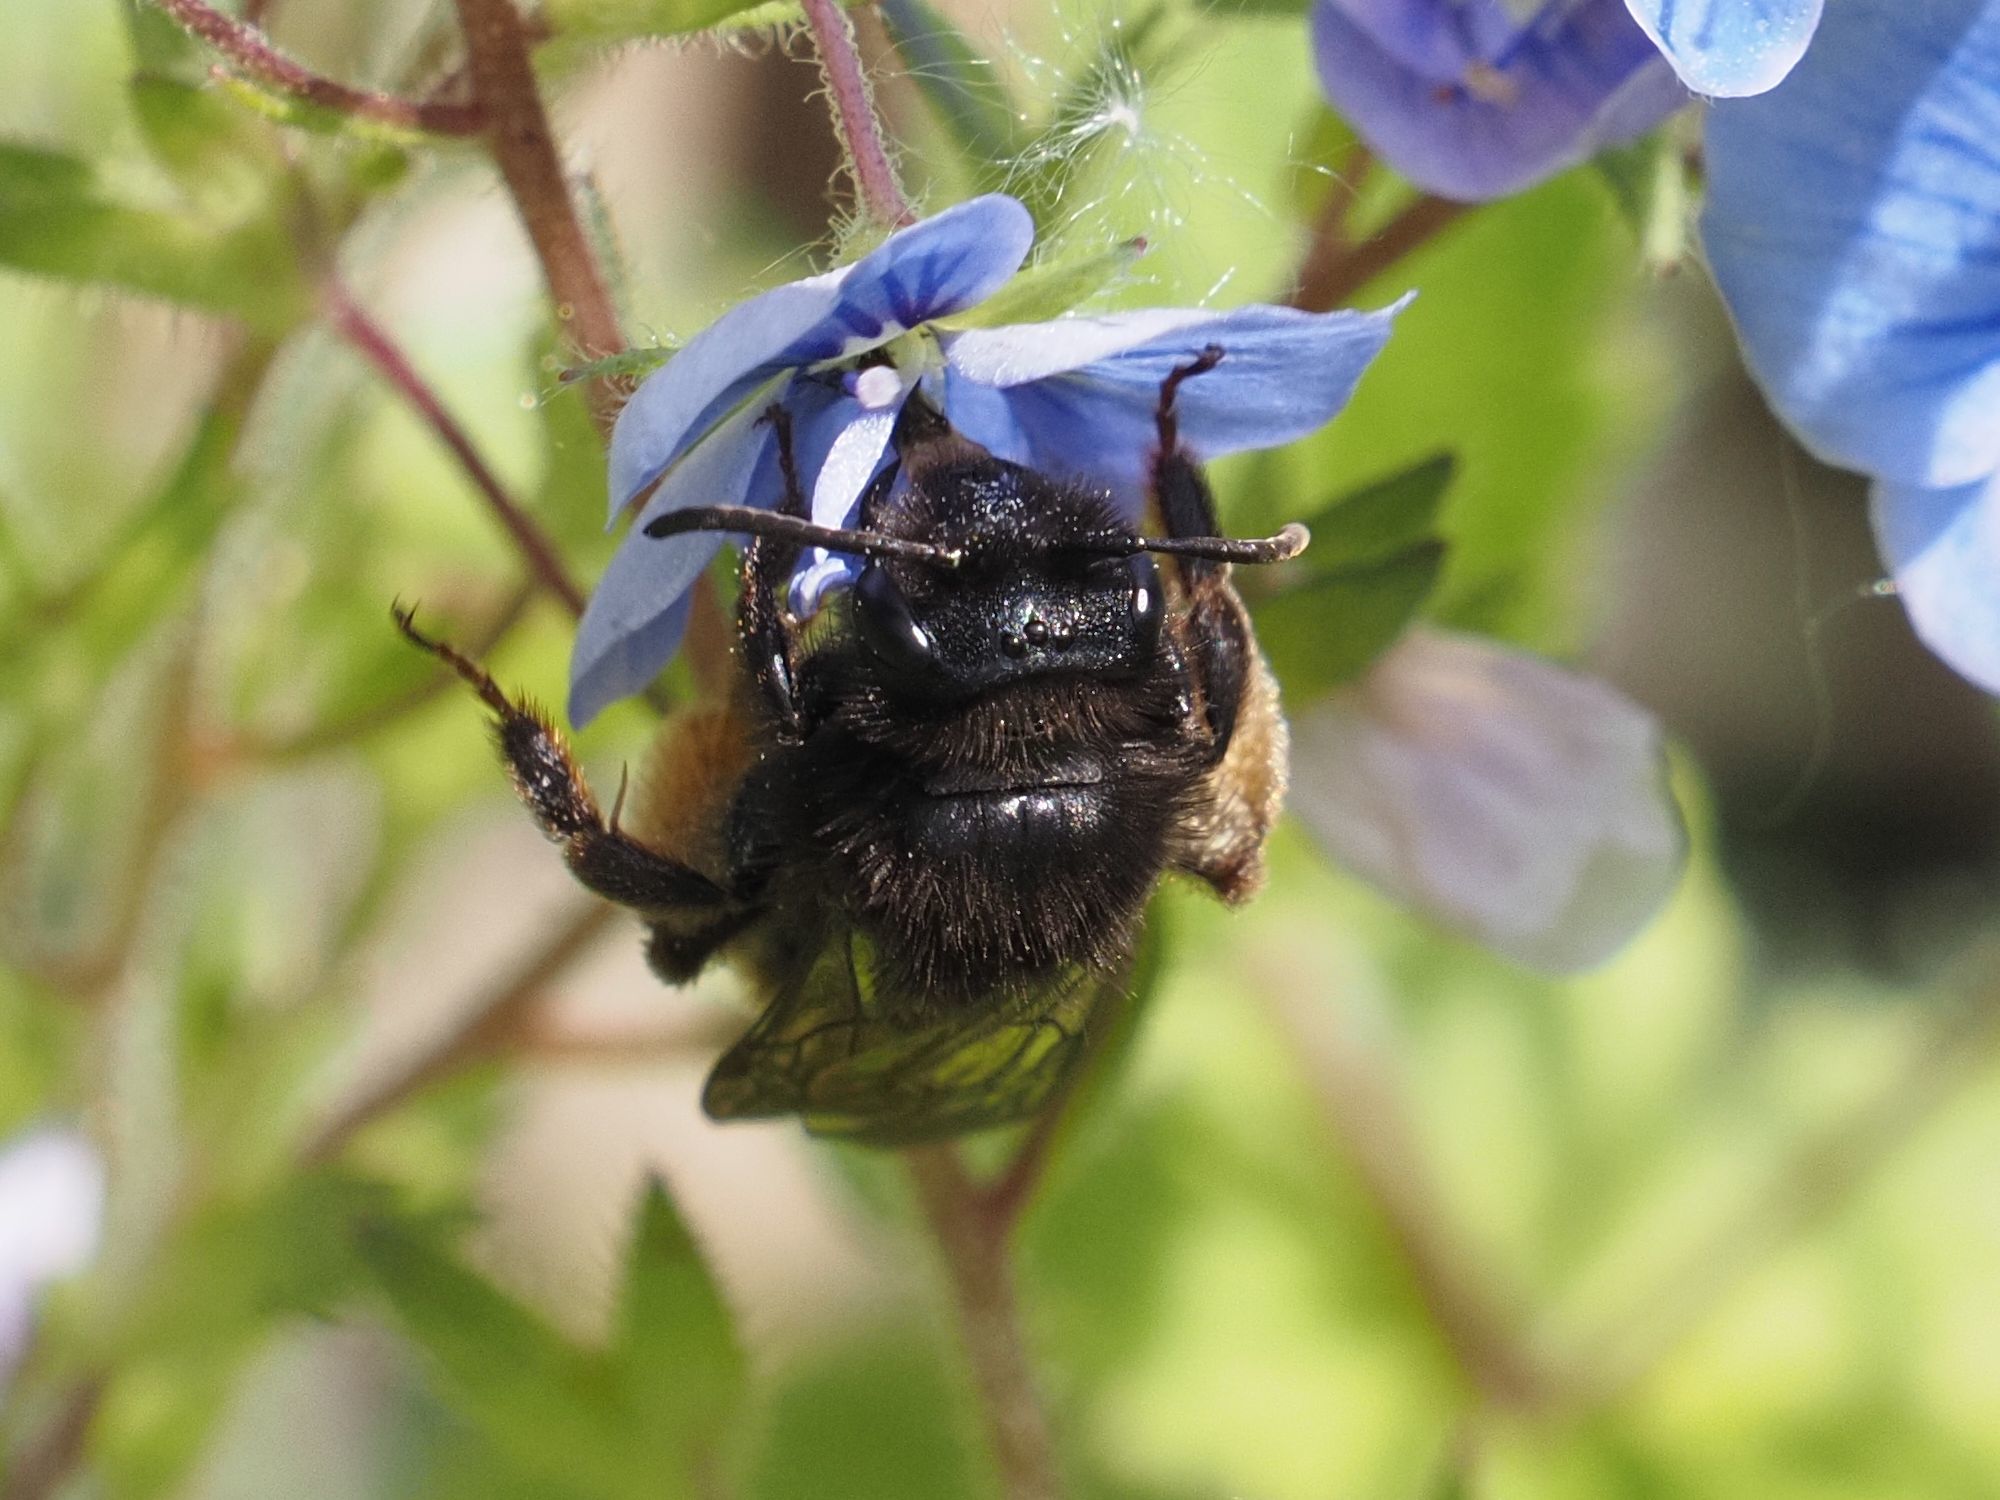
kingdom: Animalia
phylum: Arthropoda
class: Insecta
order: Hymenoptera
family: Andrenidae
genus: Andrena
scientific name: Andrena rogenhoferi
